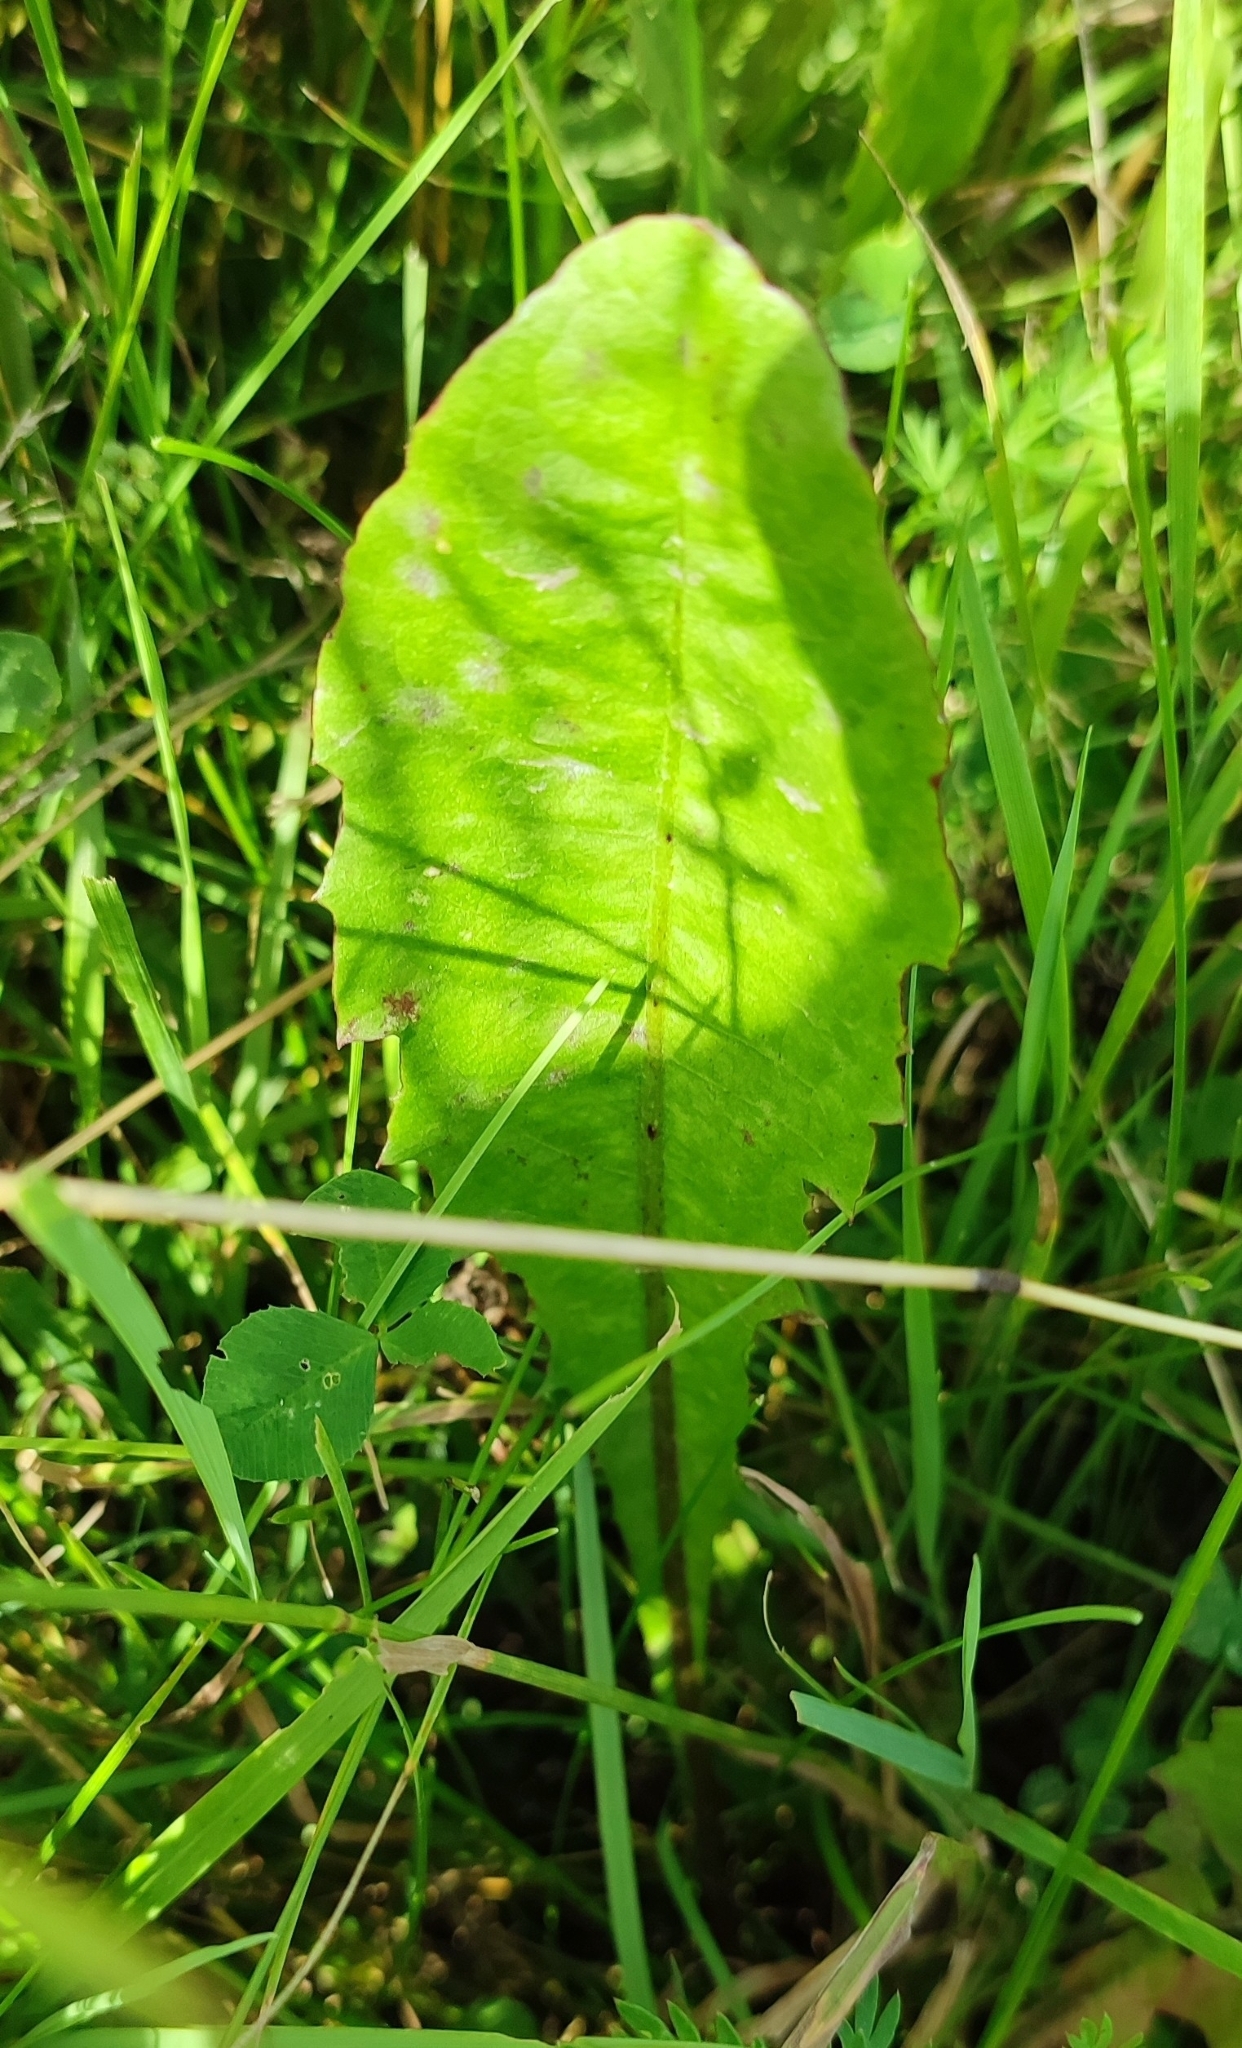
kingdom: Plantae
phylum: Tracheophyta
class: Magnoliopsida
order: Asterales
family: Asteraceae
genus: Taraxacum
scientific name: Taraxacum officinale
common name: Common dandelion
